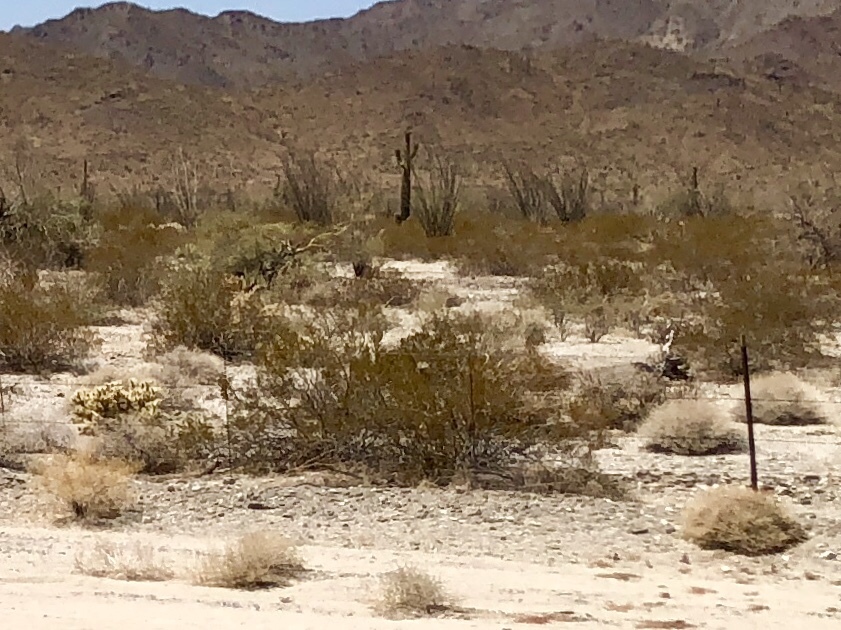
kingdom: Plantae
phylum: Tracheophyta
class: Magnoliopsida
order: Zygophyllales
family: Zygophyllaceae
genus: Larrea
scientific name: Larrea tridentata
